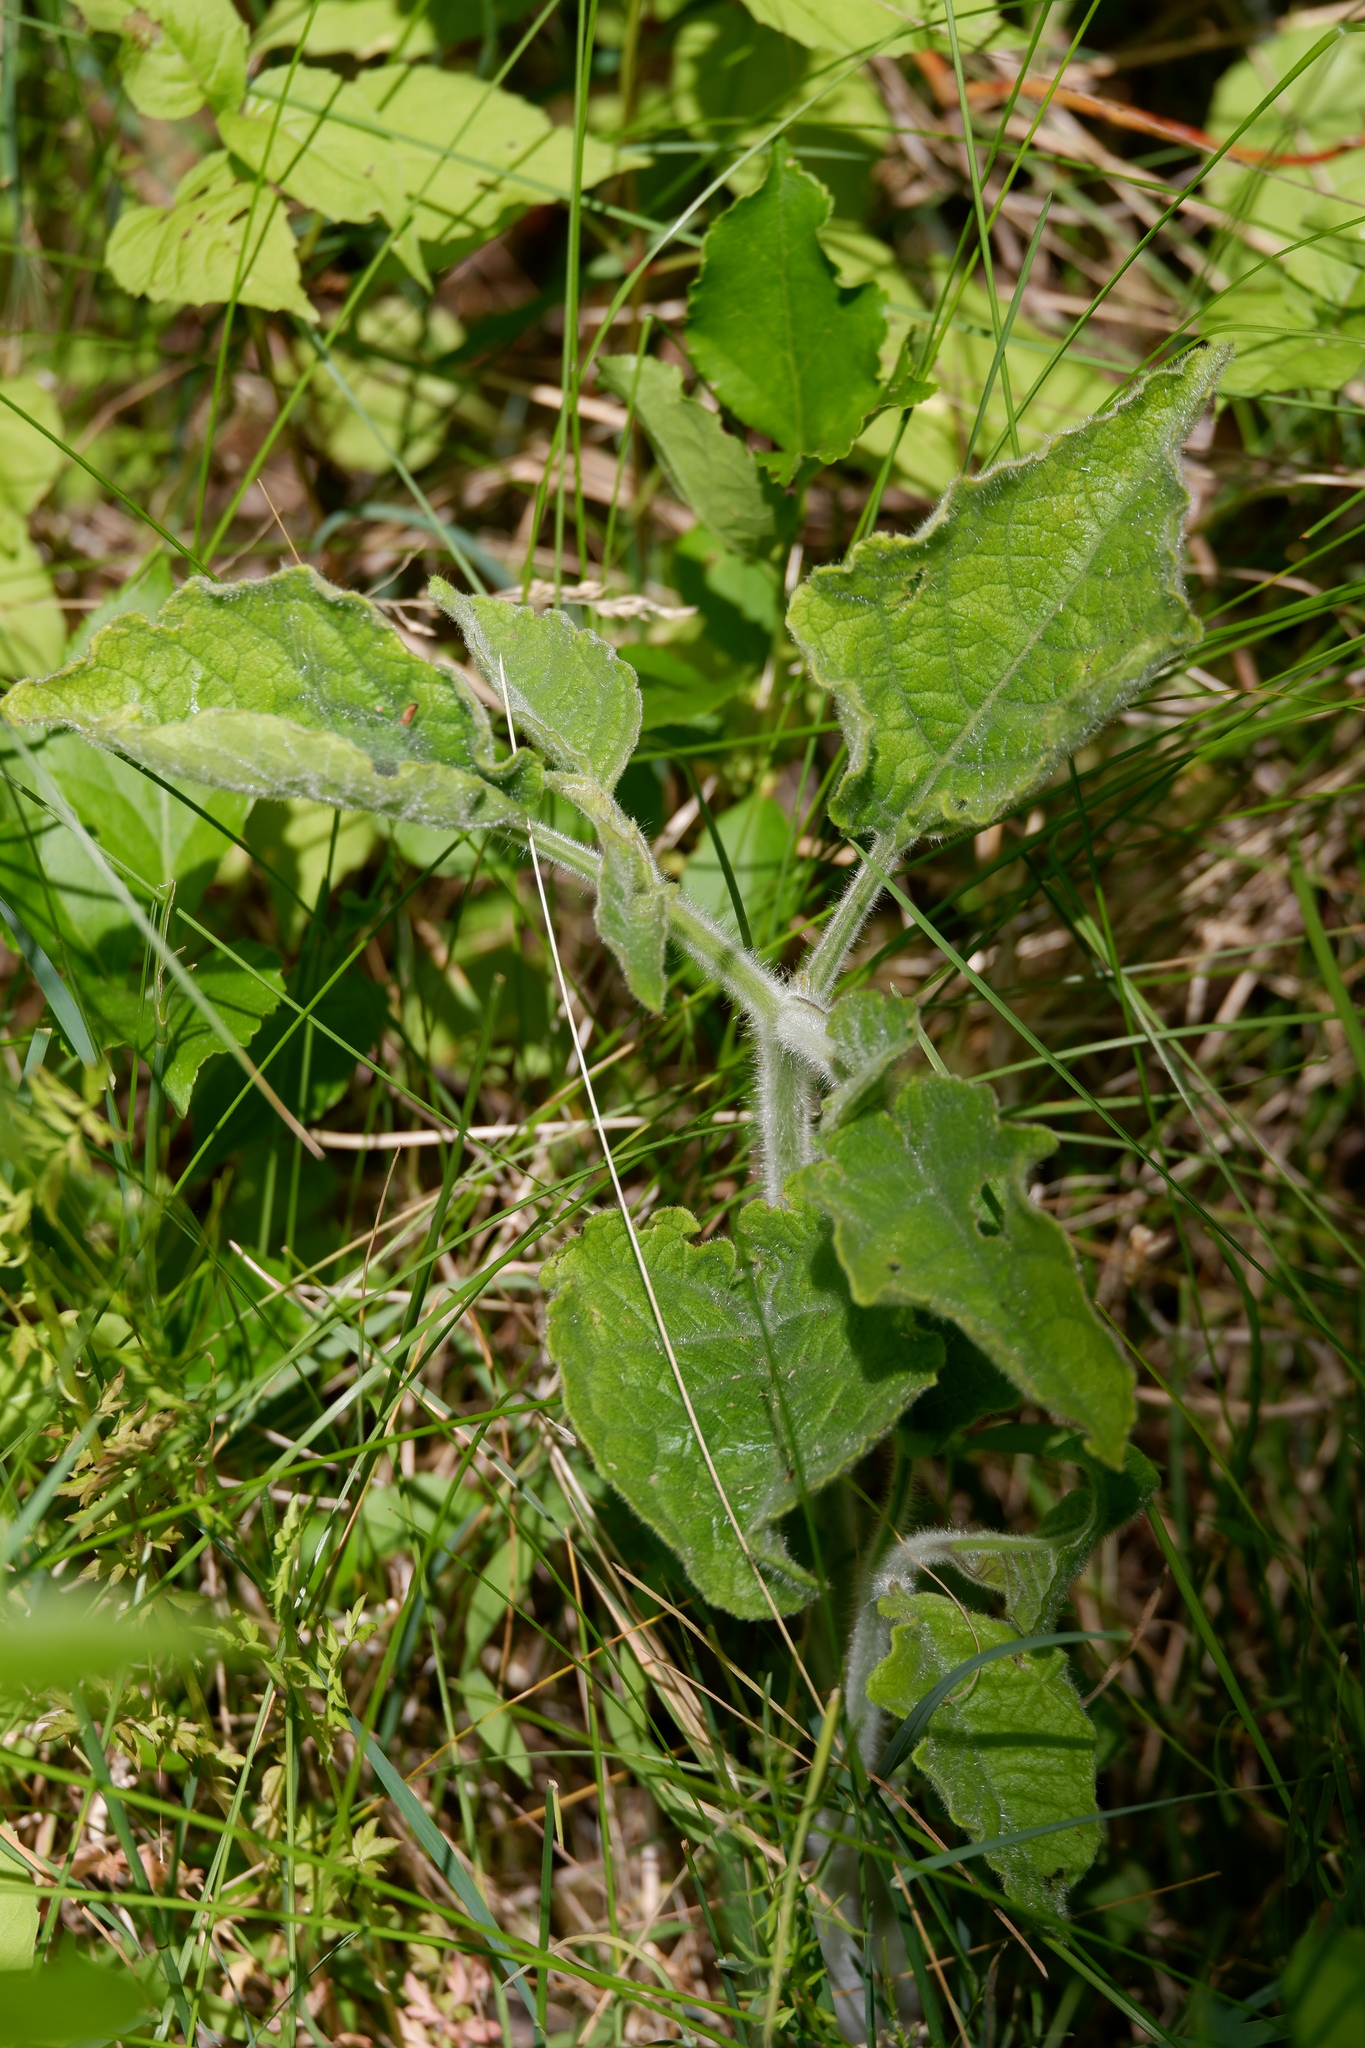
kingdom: Plantae
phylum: Tracheophyta
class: Magnoliopsida
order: Solanales
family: Solanaceae
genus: Physalis
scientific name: Physalis heterophylla
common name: Clammy ground-cherry
